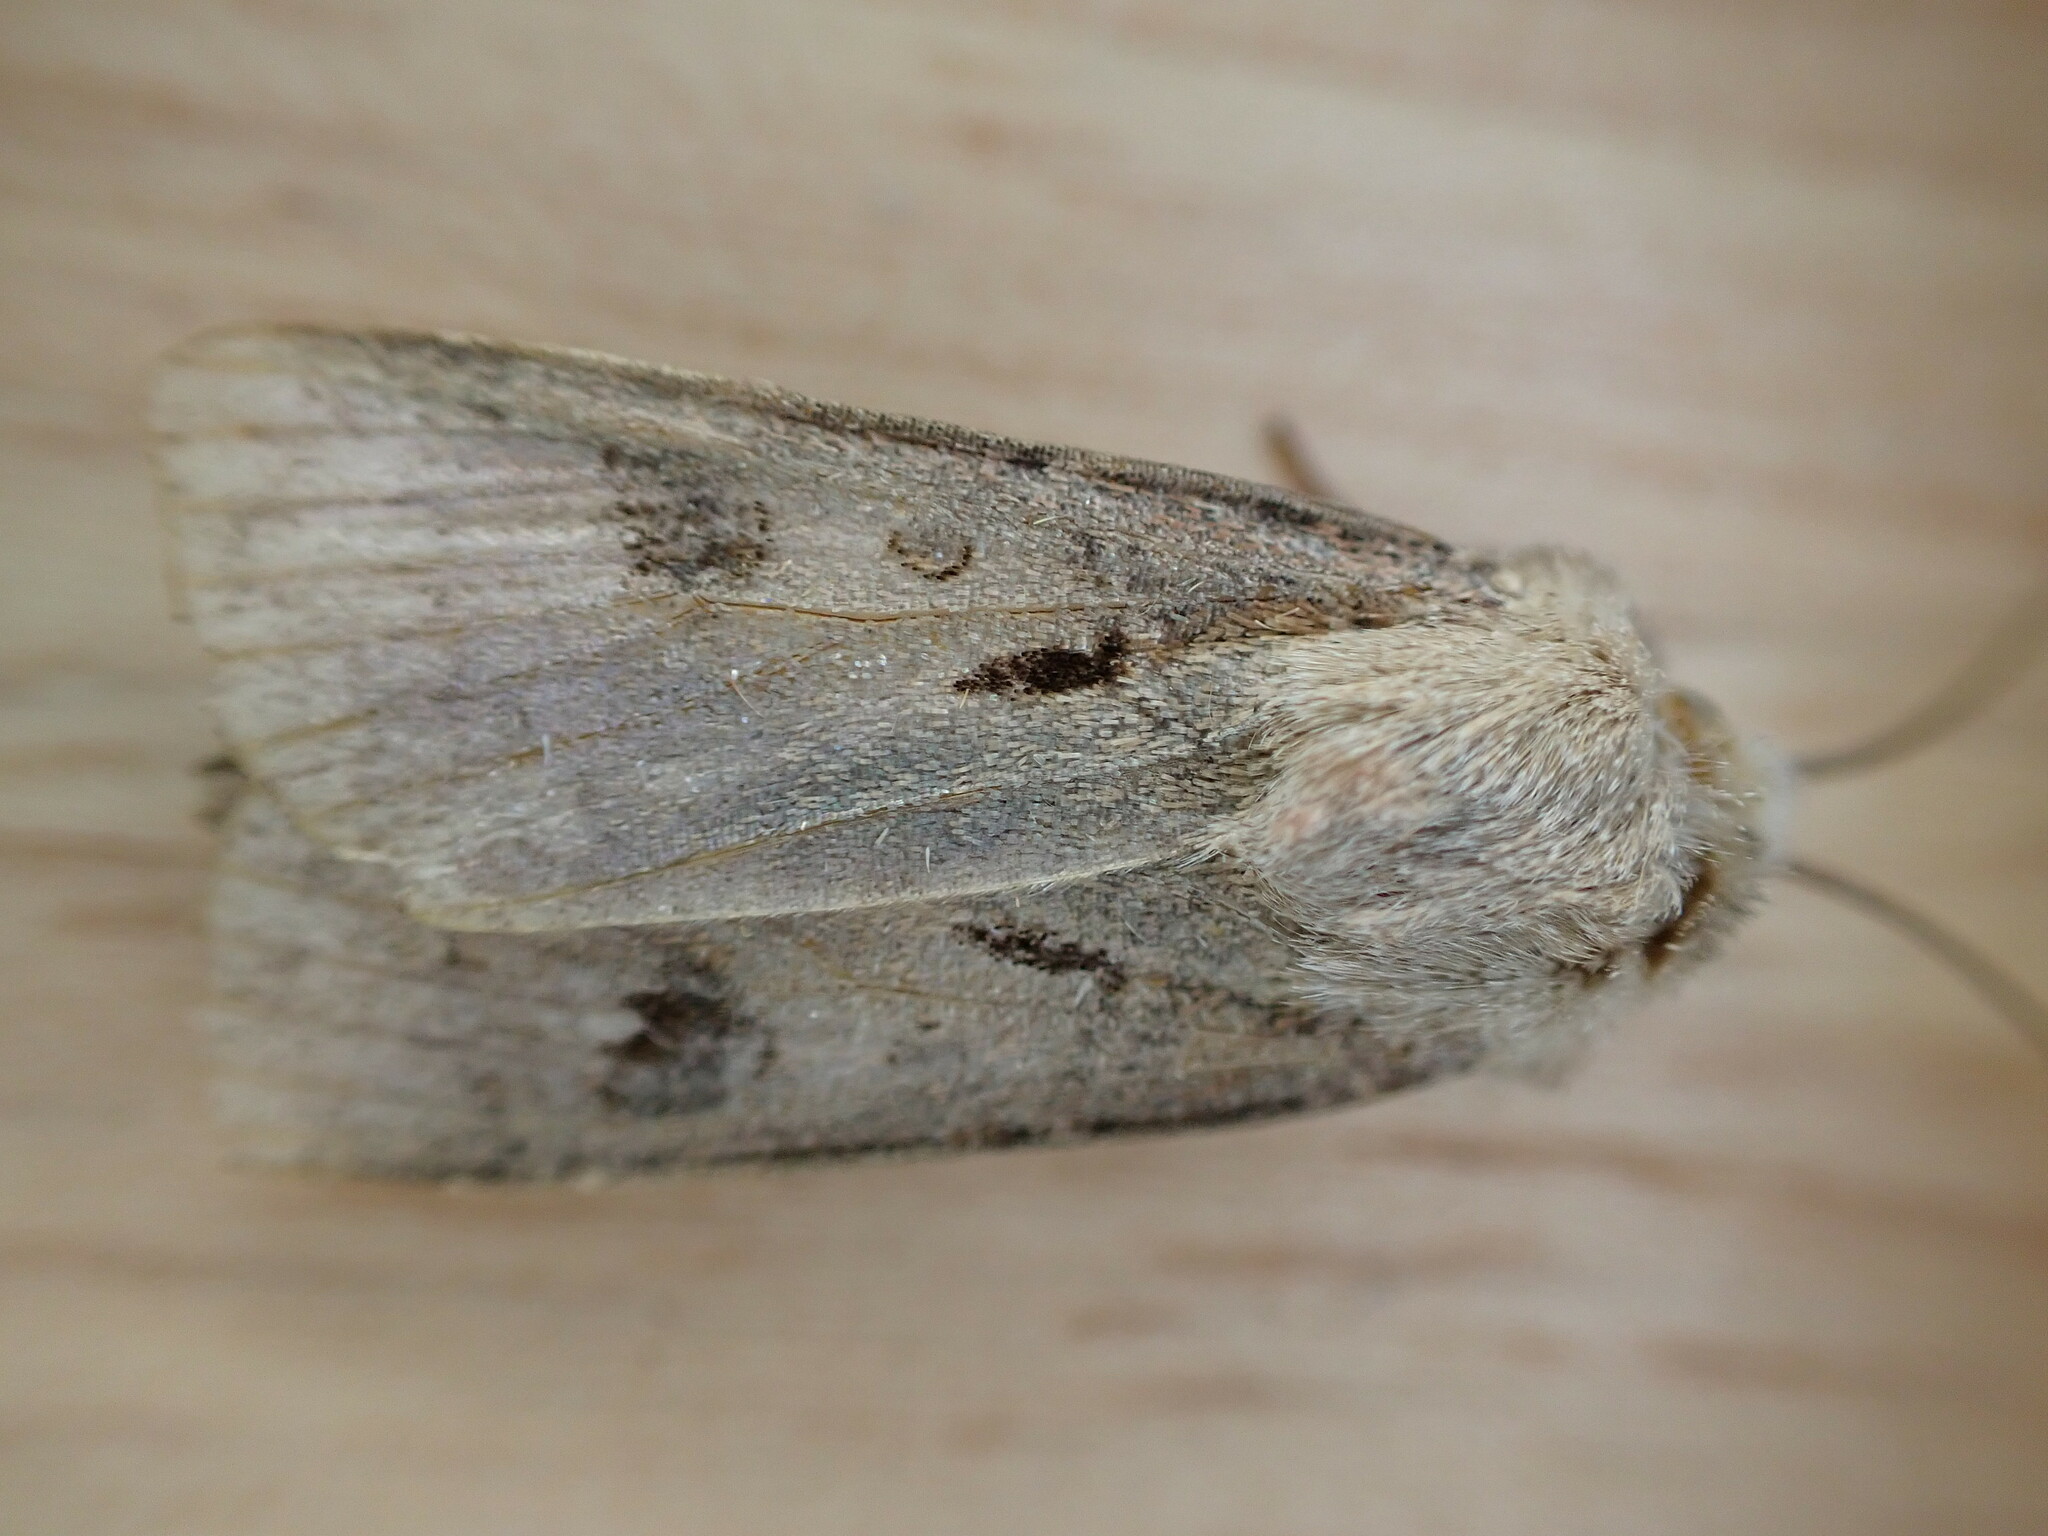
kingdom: Animalia
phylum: Arthropoda
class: Insecta
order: Lepidoptera
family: Noctuidae
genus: Agrotis
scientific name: Agrotis exclamationis
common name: Heart and dart
